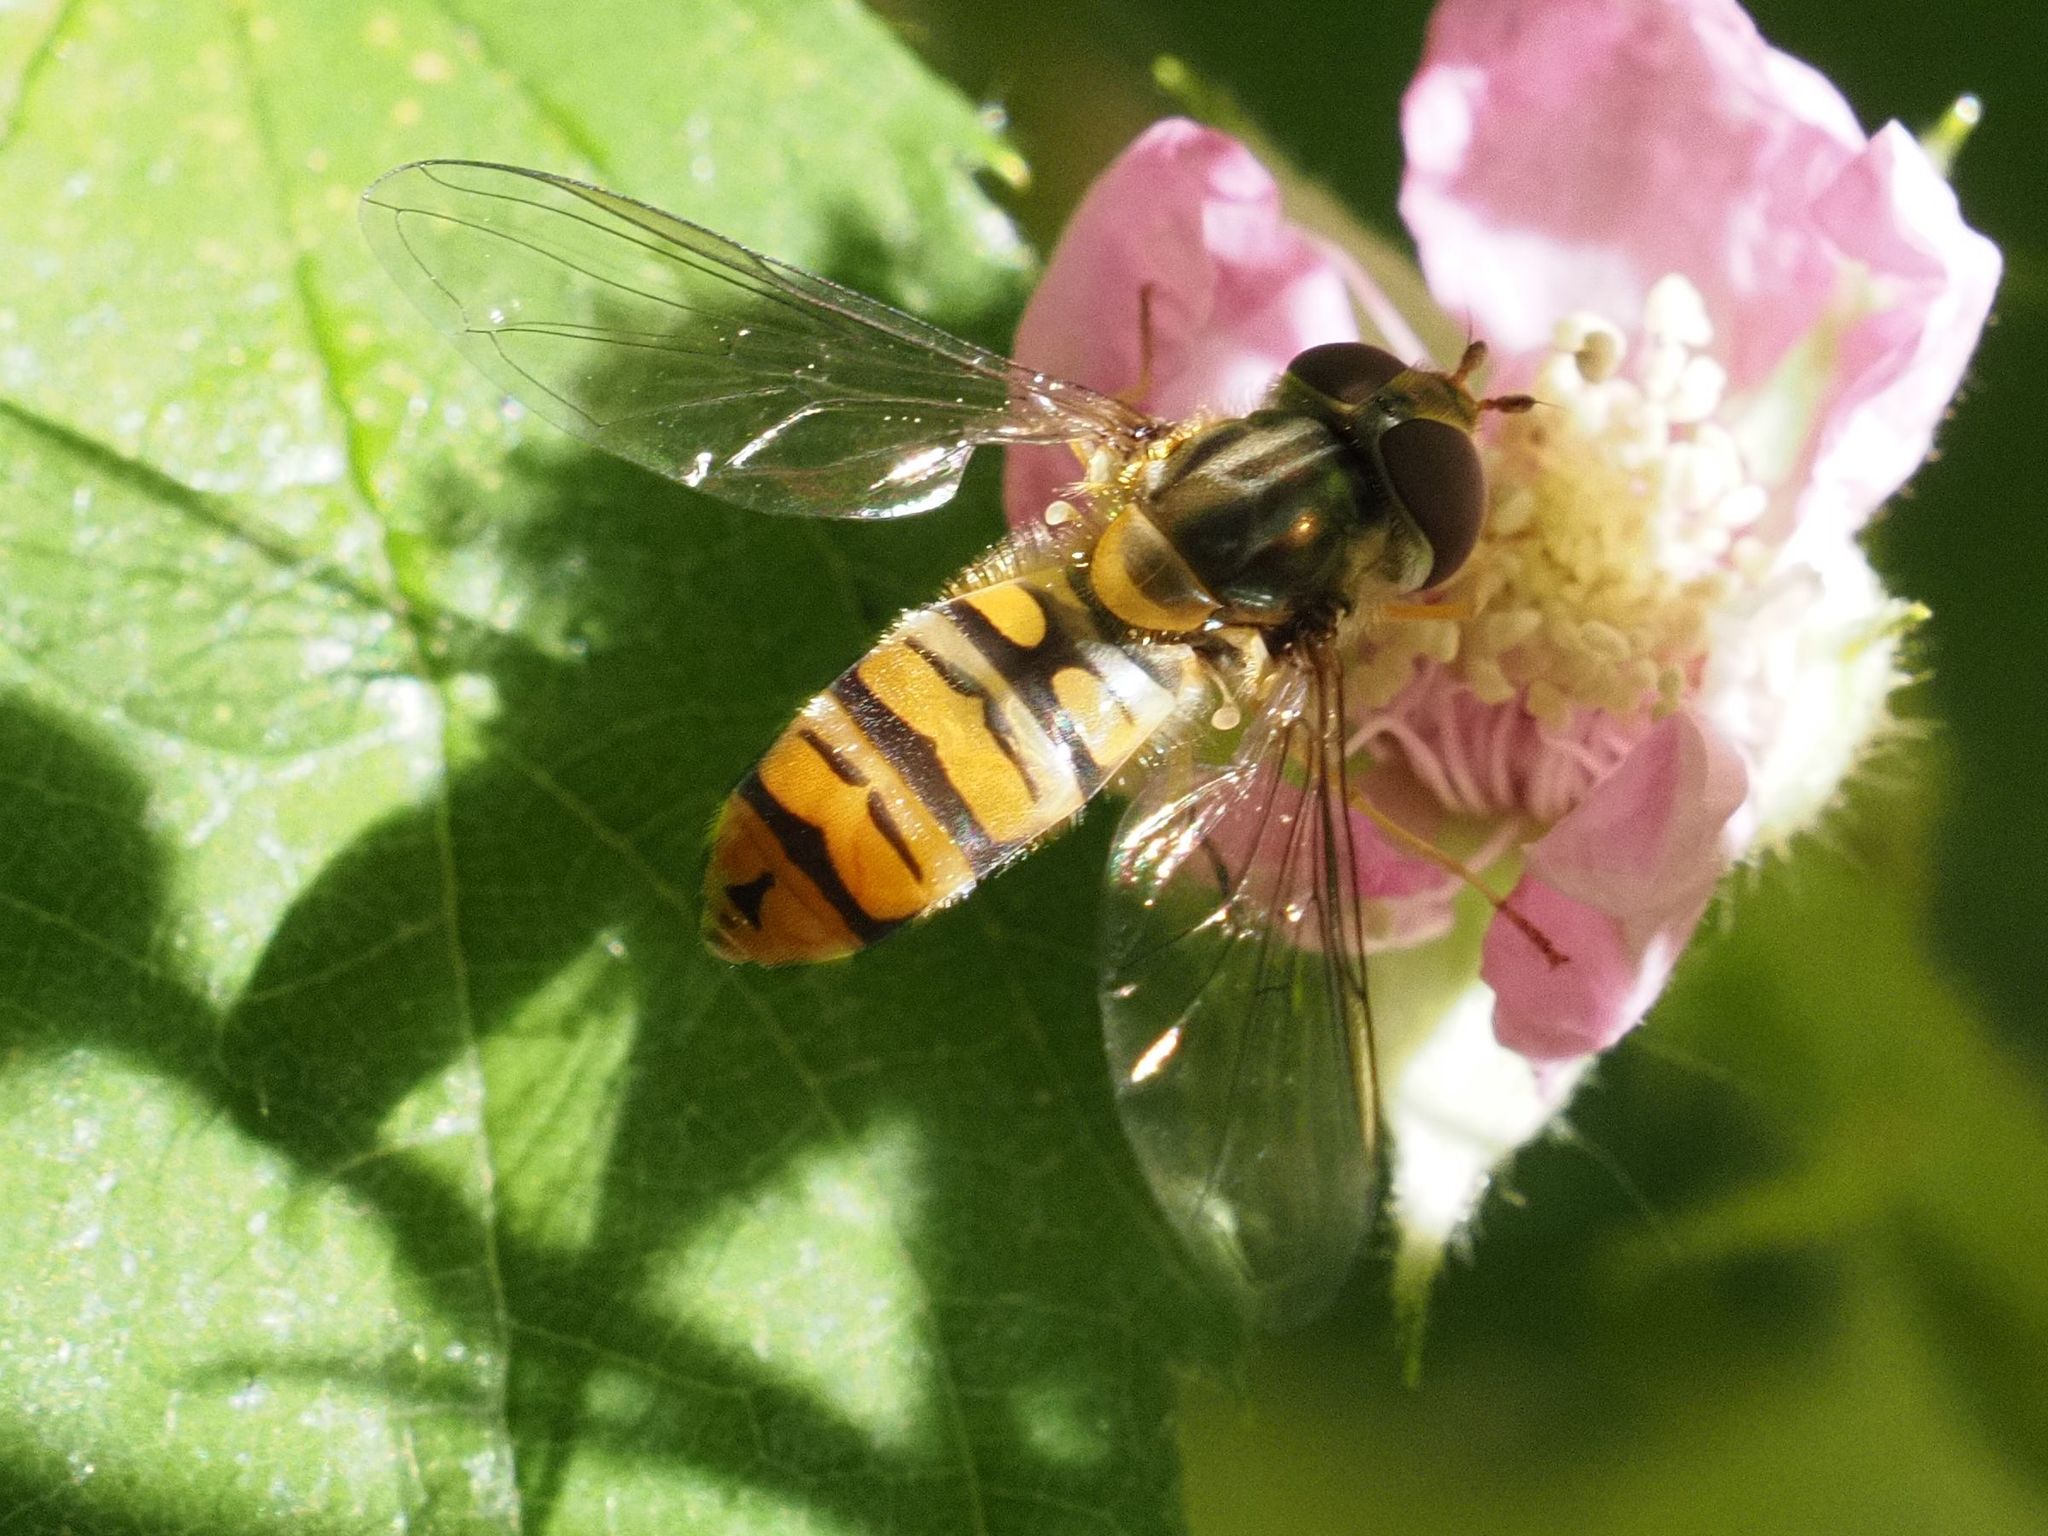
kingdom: Animalia
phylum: Arthropoda
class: Insecta
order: Diptera
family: Syrphidae
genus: Episyrphus
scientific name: Episyrphus balteatus
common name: Marmalade hoverfly
